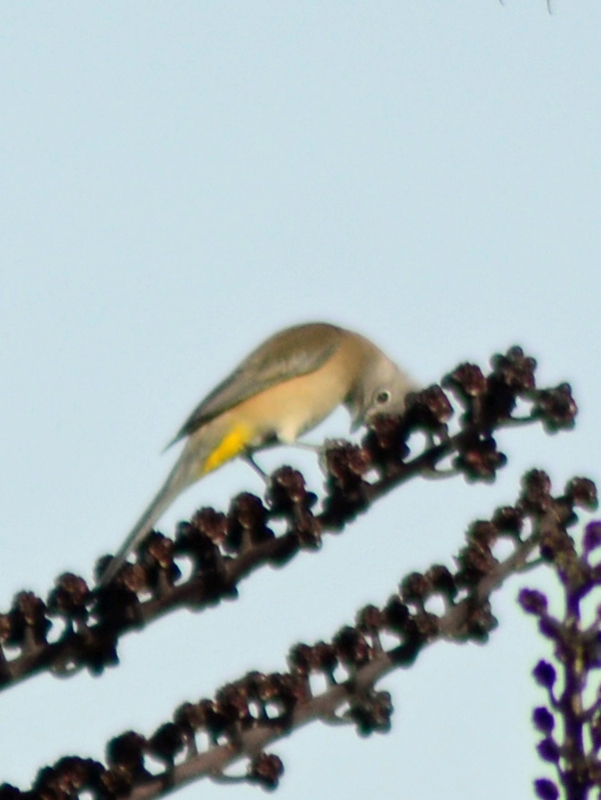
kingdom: Animalia
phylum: Chordata
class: Aves
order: Passeriformes
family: Ptilogonatidae
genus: Ptilogonys
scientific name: Ptilogonys cinereus
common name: Gray silky-flycatcher
